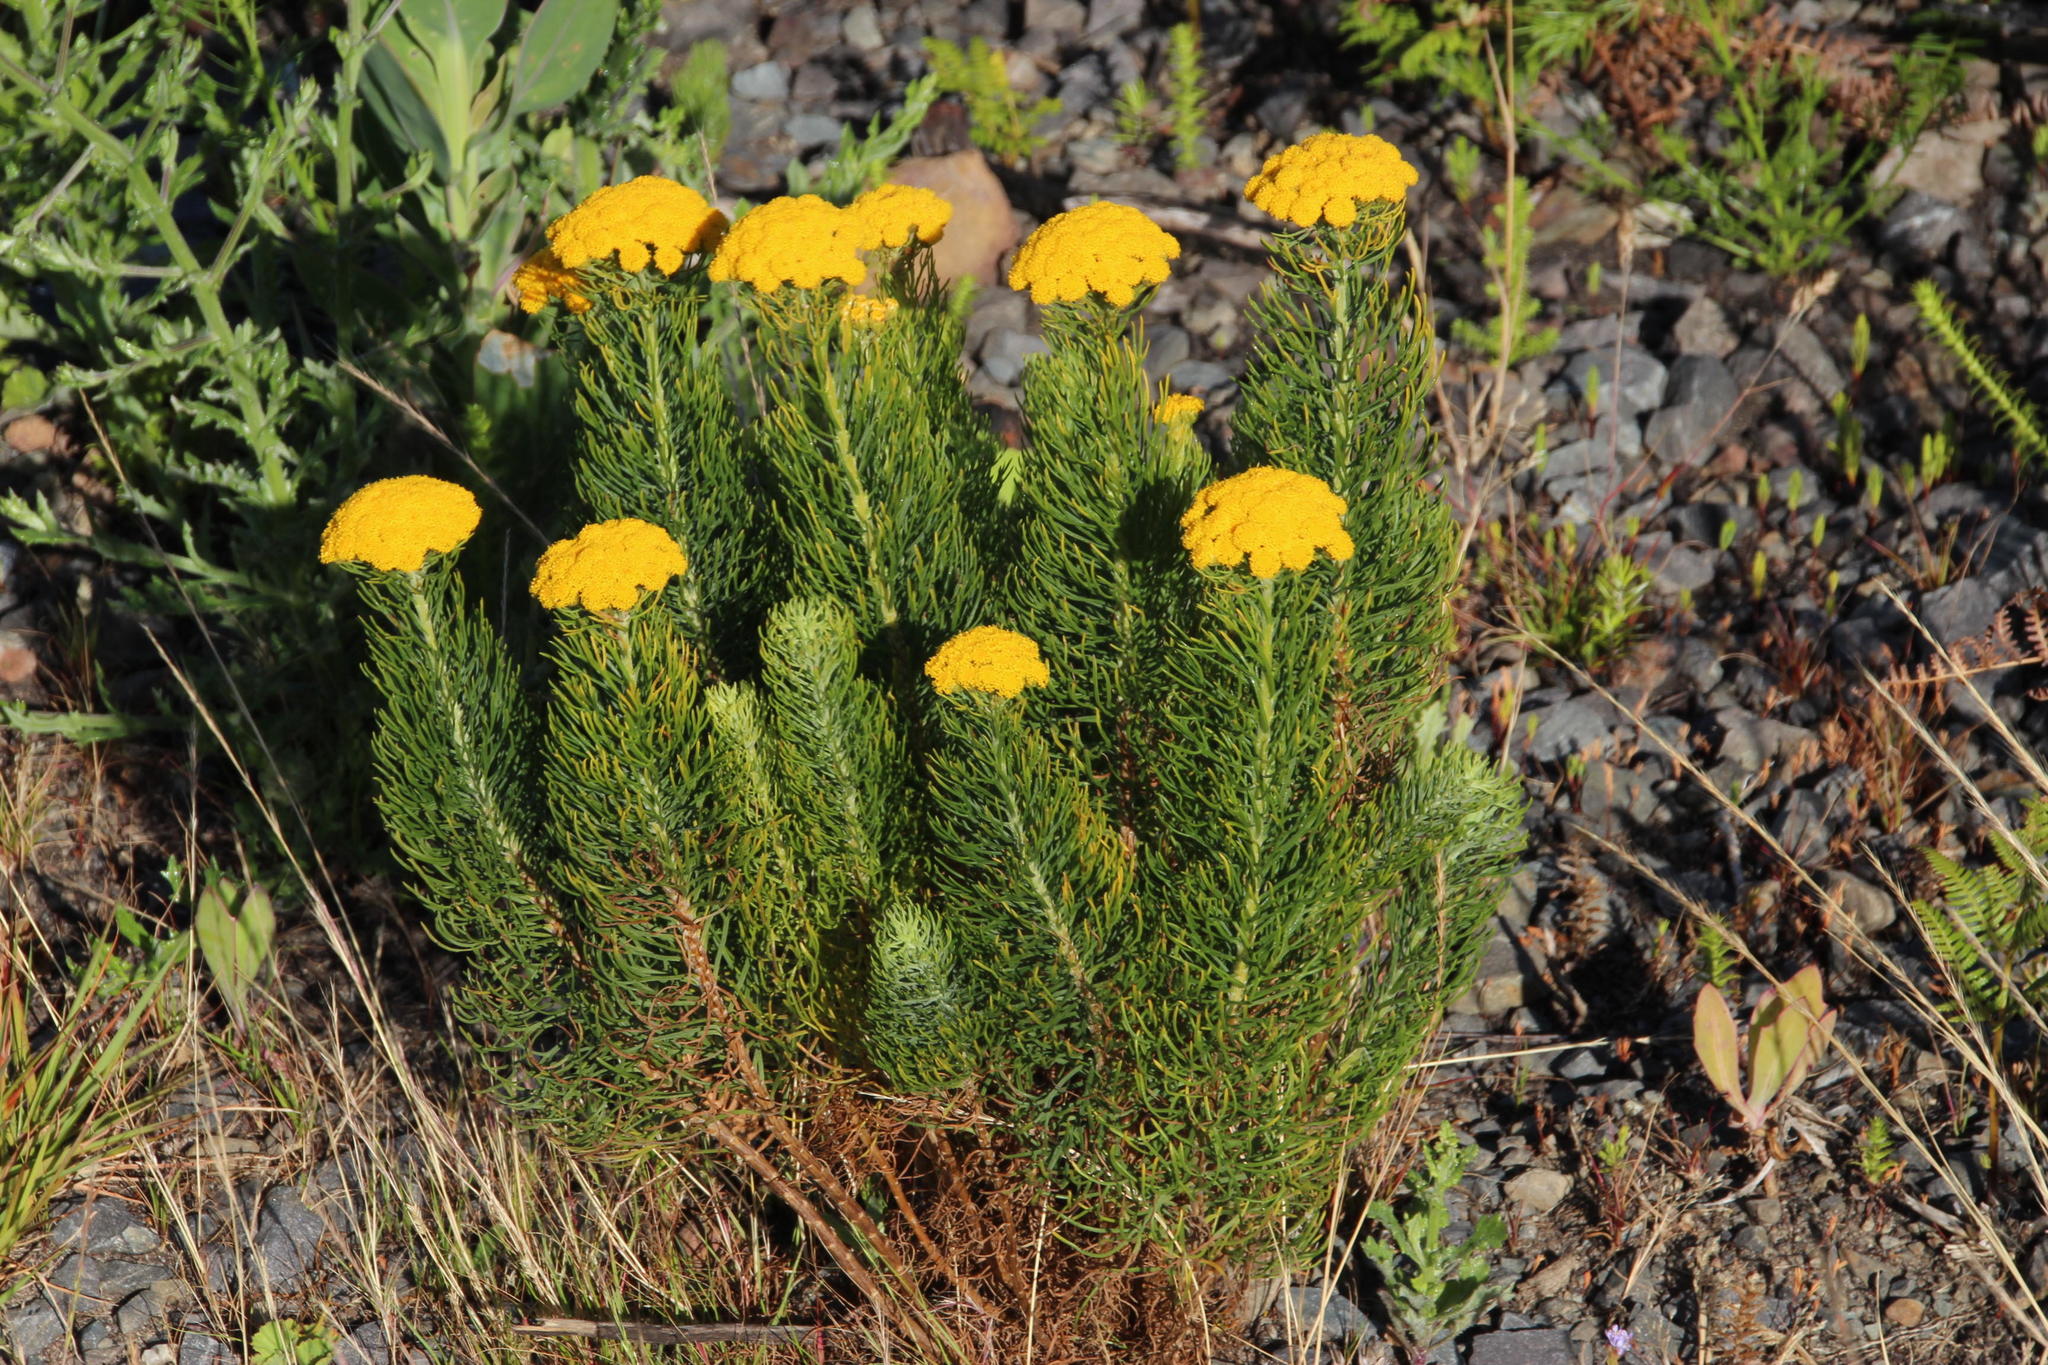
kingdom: Plantae
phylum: Tracheophyta
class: Magnoliopsida
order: Asterales
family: Asteraceae
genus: Hymenolepis
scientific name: Hymenolepis crithmifolia
